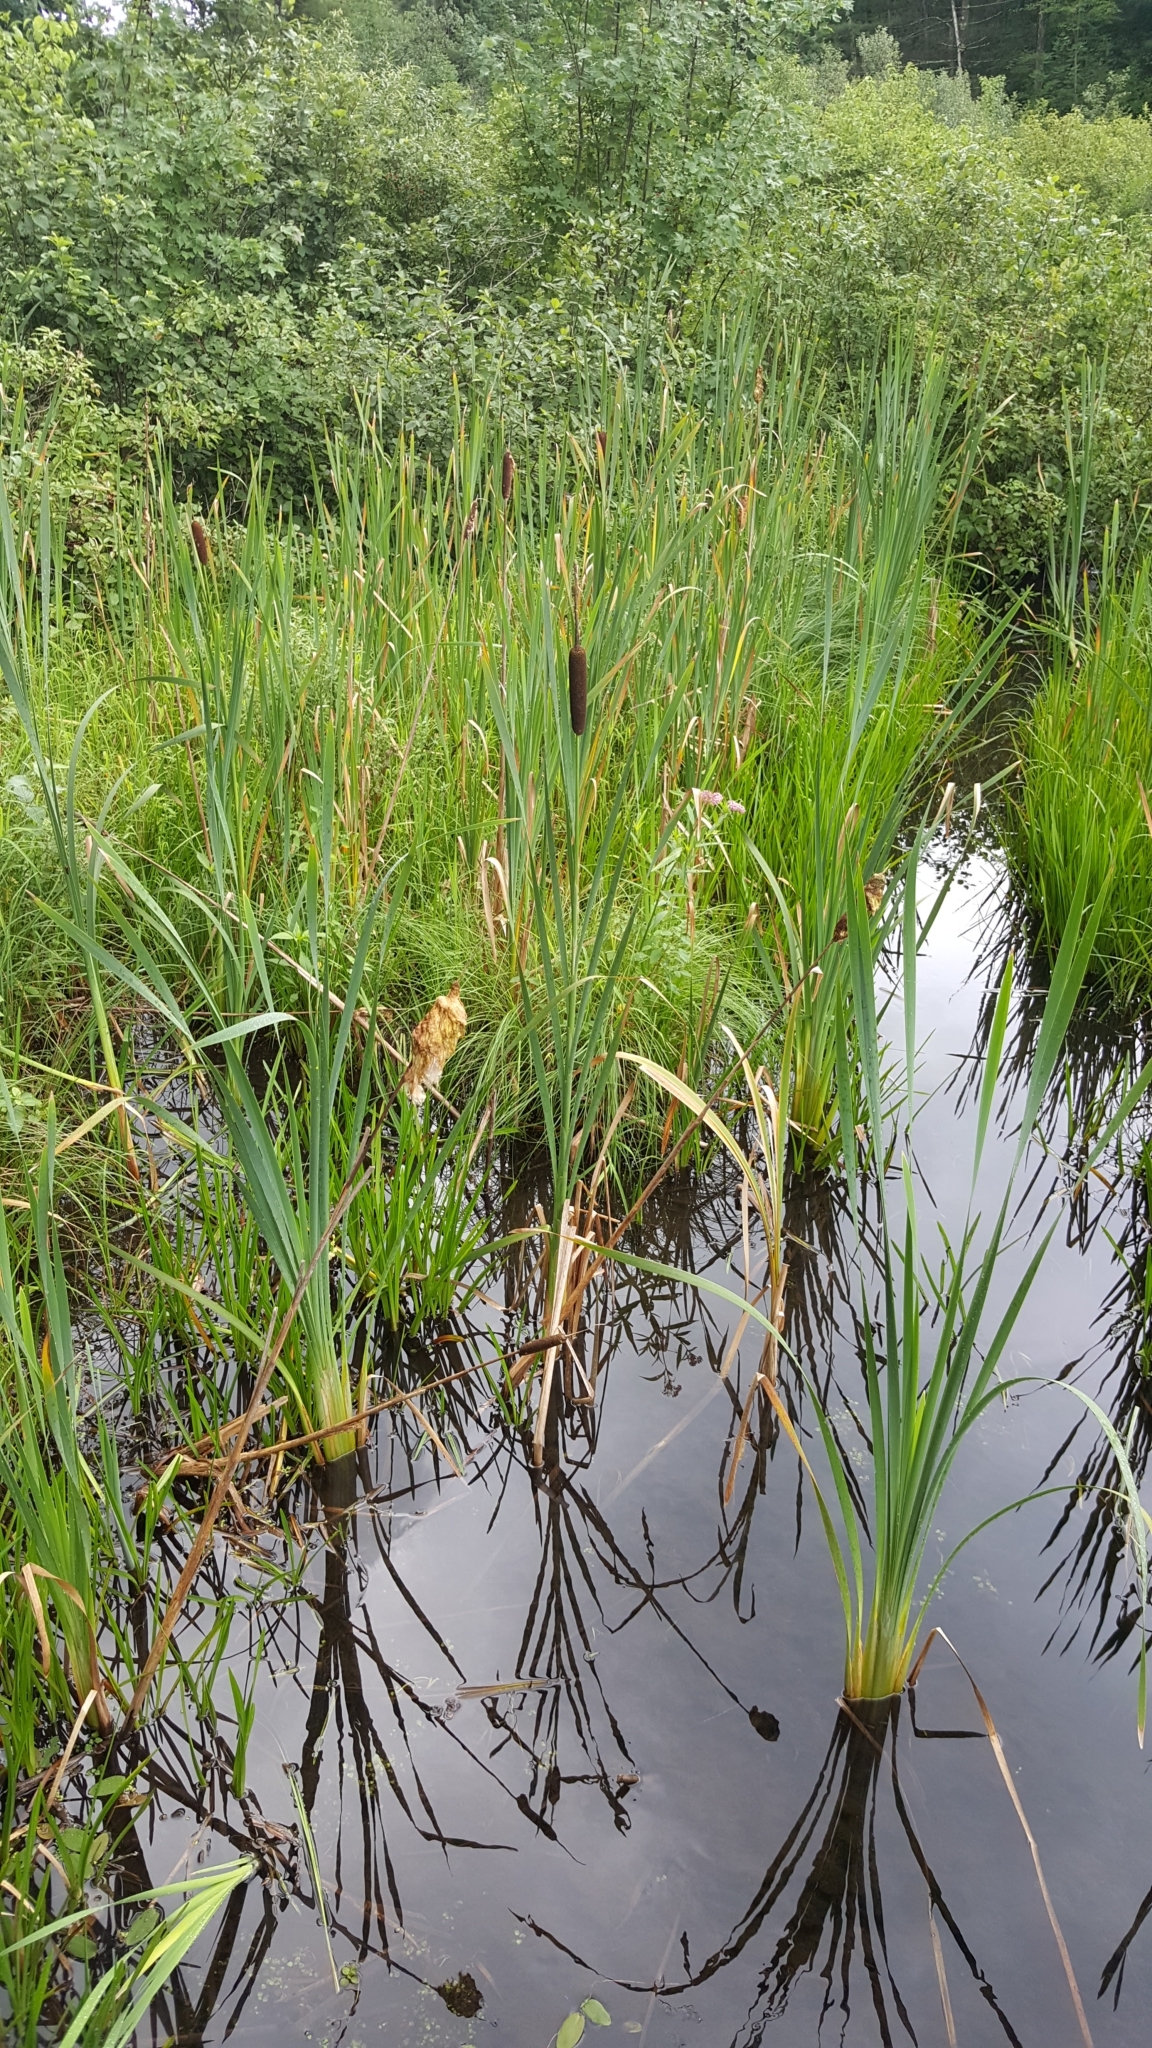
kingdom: Plantae
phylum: Tracheophyta
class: Liliopsida
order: Poales
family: Typhaceae
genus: Typha
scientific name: Typha latifolia
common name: Broadleaf cattail
